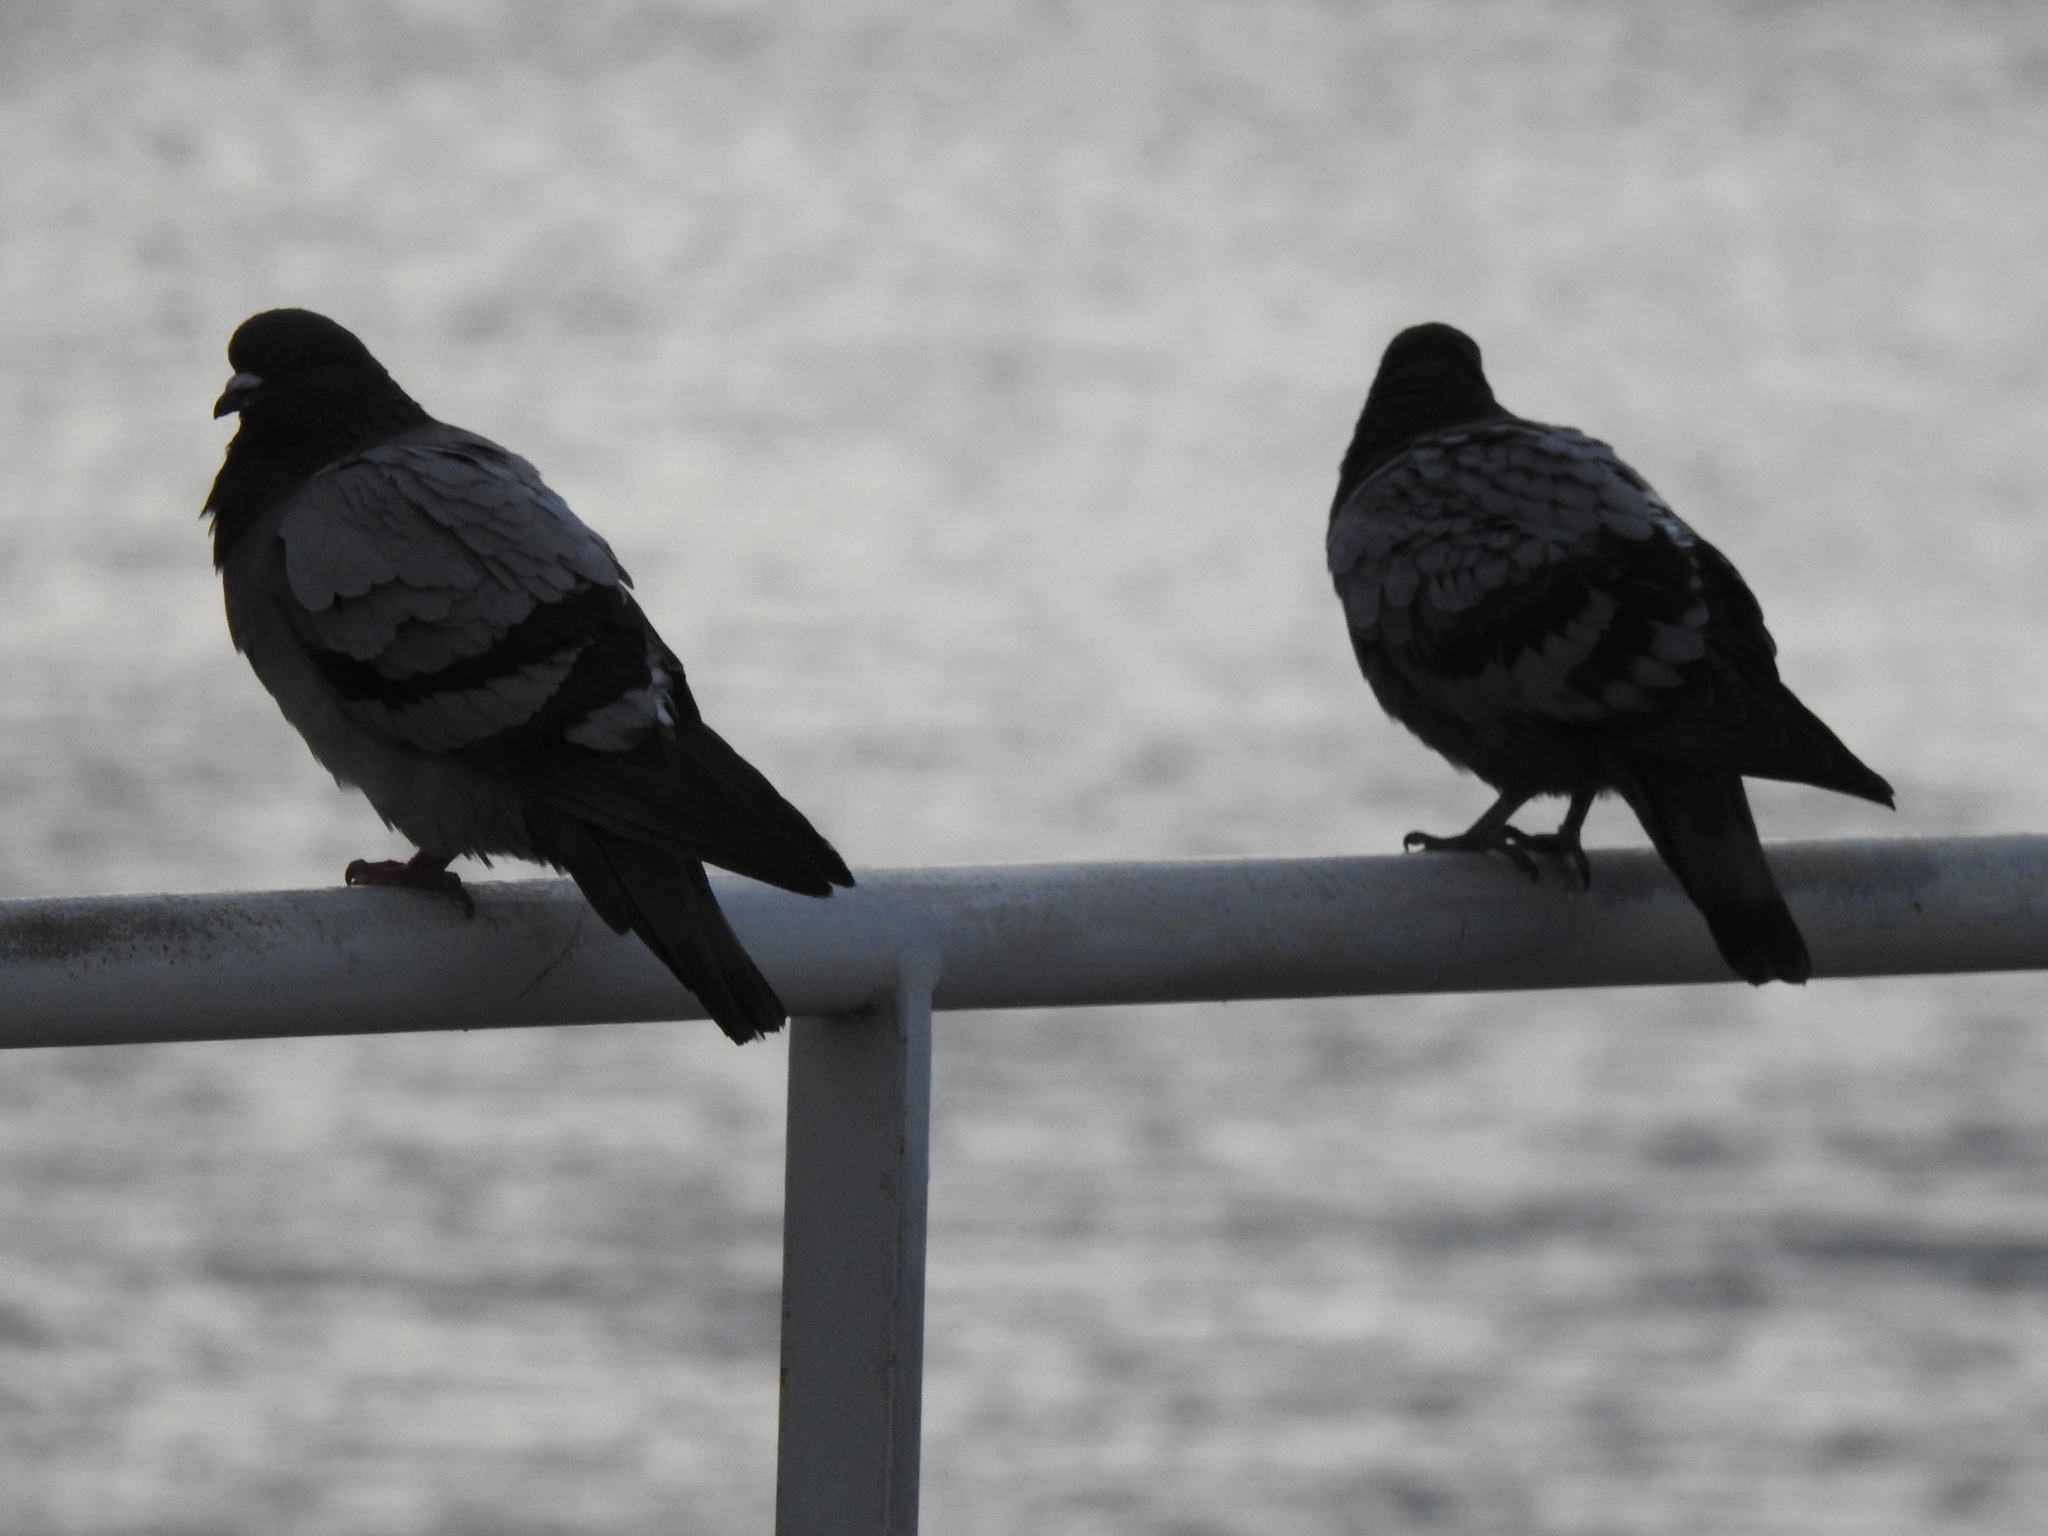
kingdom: Animalia
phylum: Chordata
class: Aves
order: Columbiformes
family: Columbidae
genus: Columba
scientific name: Columba livia
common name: Rock pigeon
